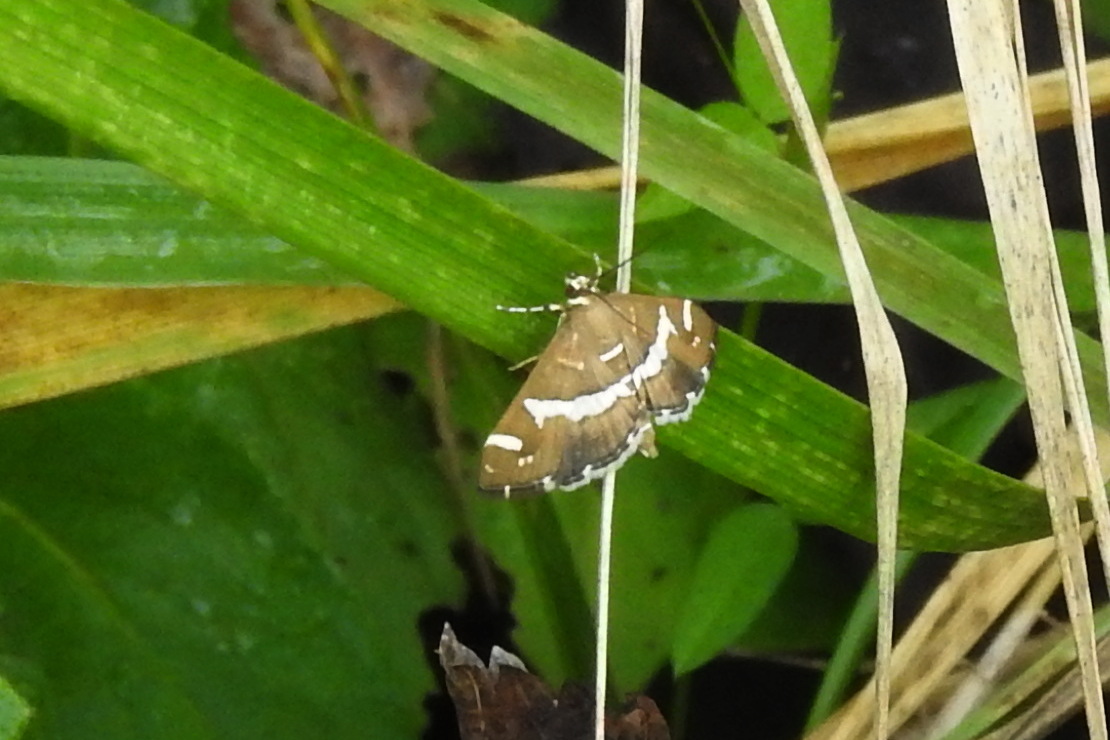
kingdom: Animalia
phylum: Arthropoda
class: Insecta
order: Lepidoptera
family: Crambidae
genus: Spoladea
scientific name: Spoladea recurvalis
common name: Beet webworm moth
